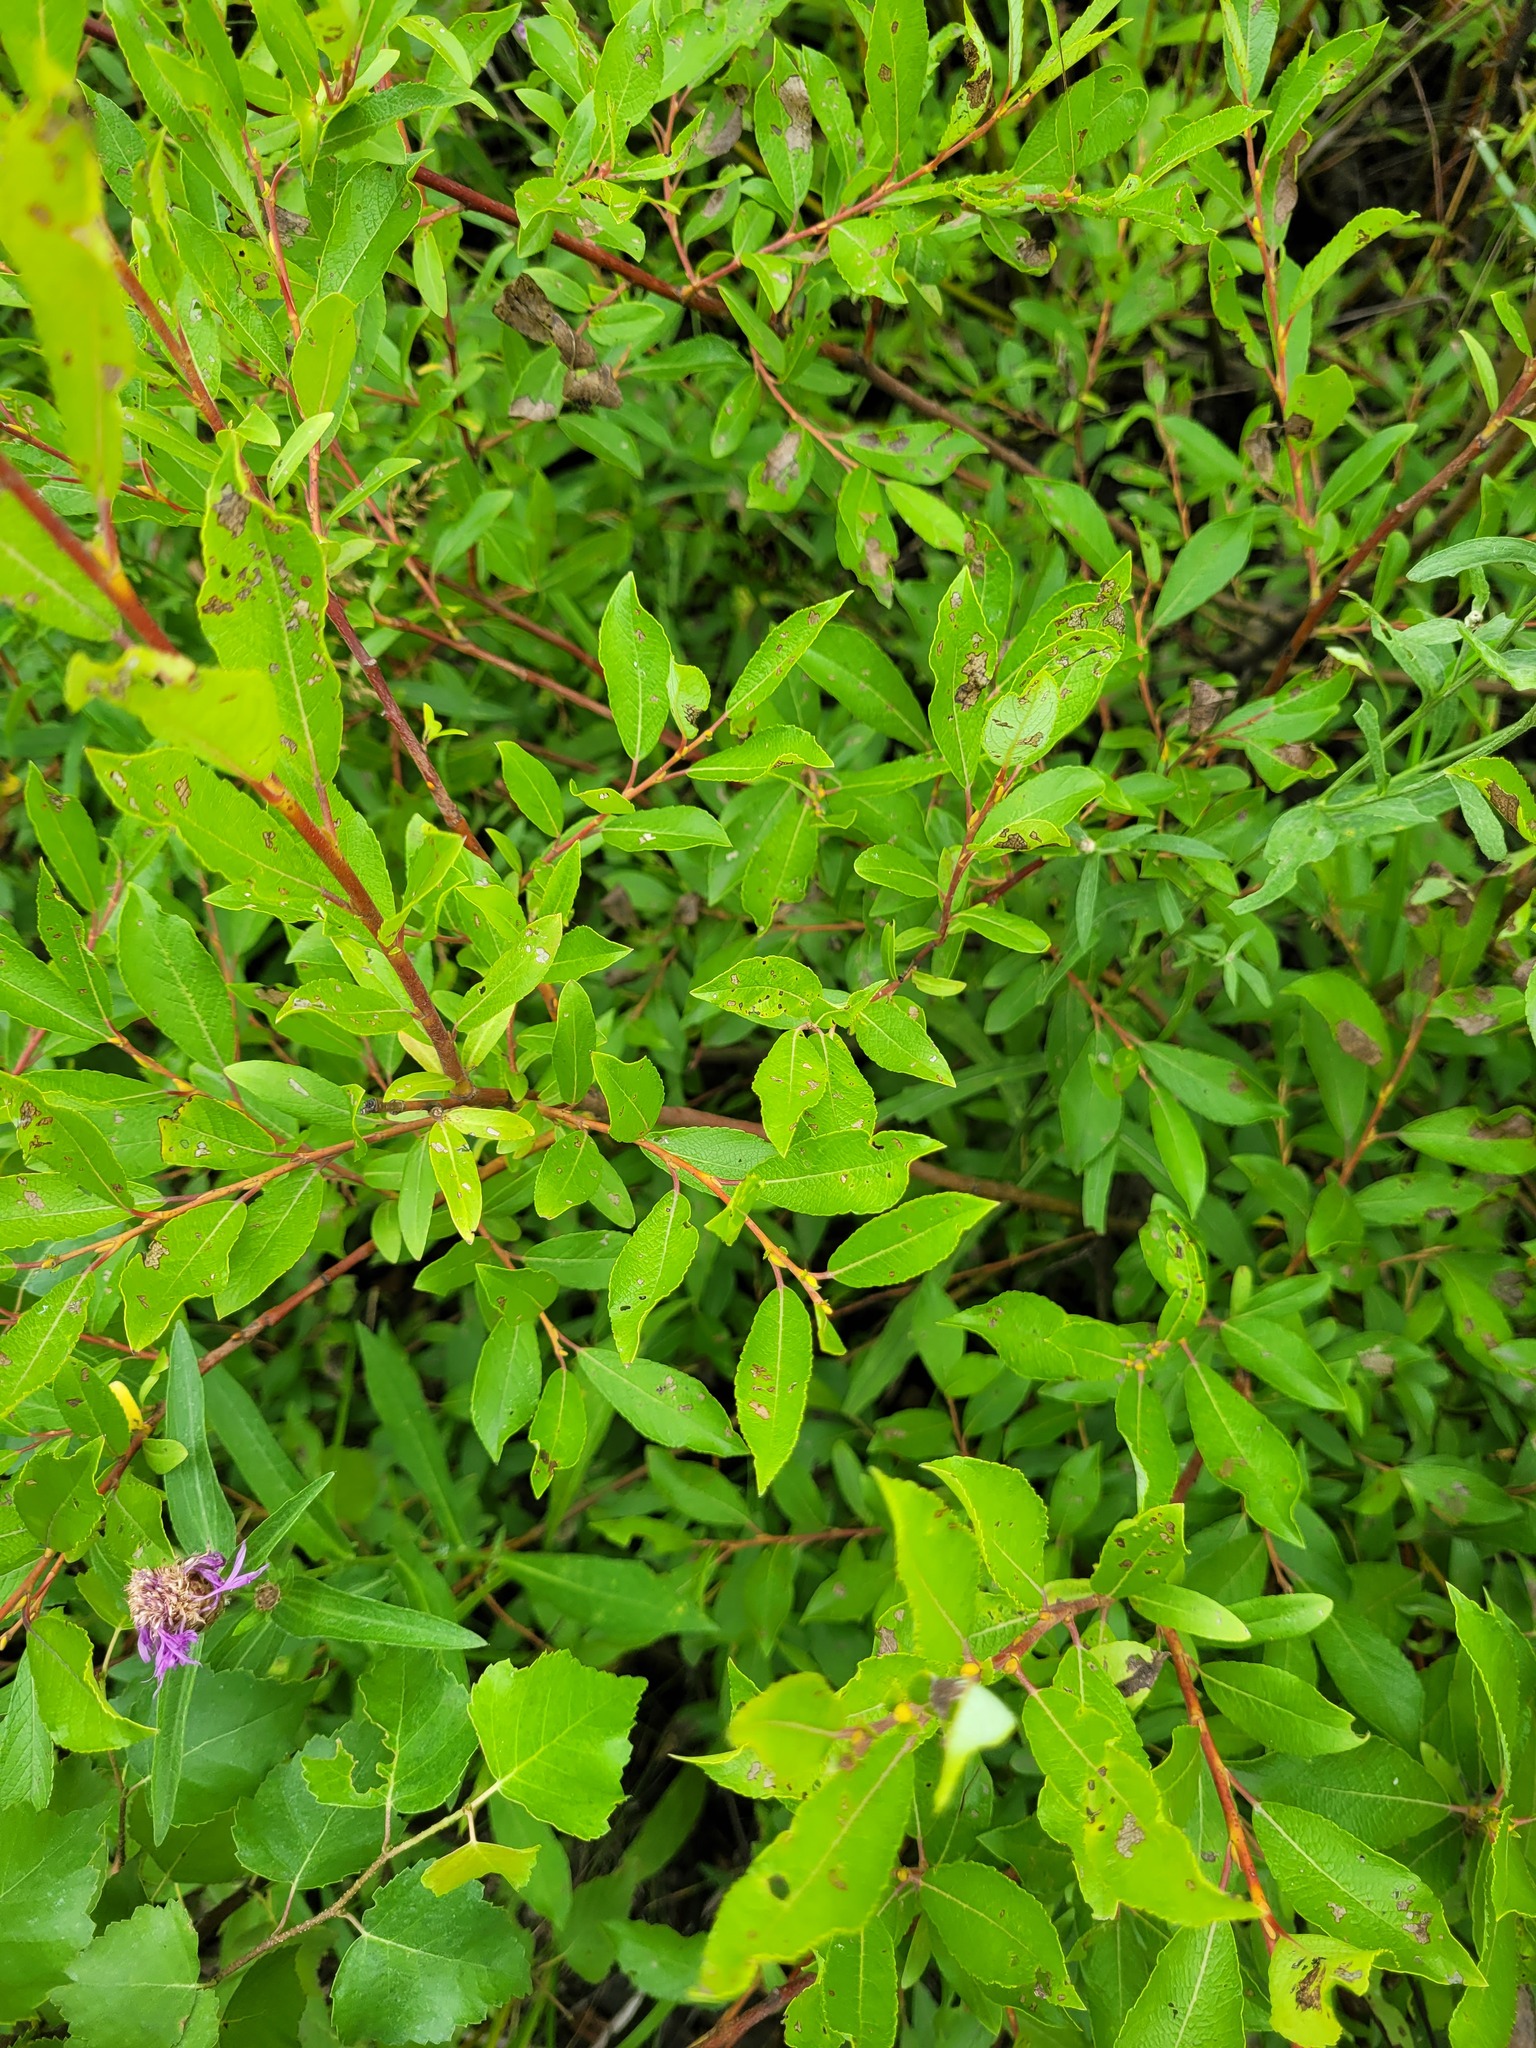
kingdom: Plantae
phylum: Tracheophyta
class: Magnoliopsida
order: Malpighiales
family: Salicaceae
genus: Salix
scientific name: Salix myrsinifolia
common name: Dark-leaved willow
